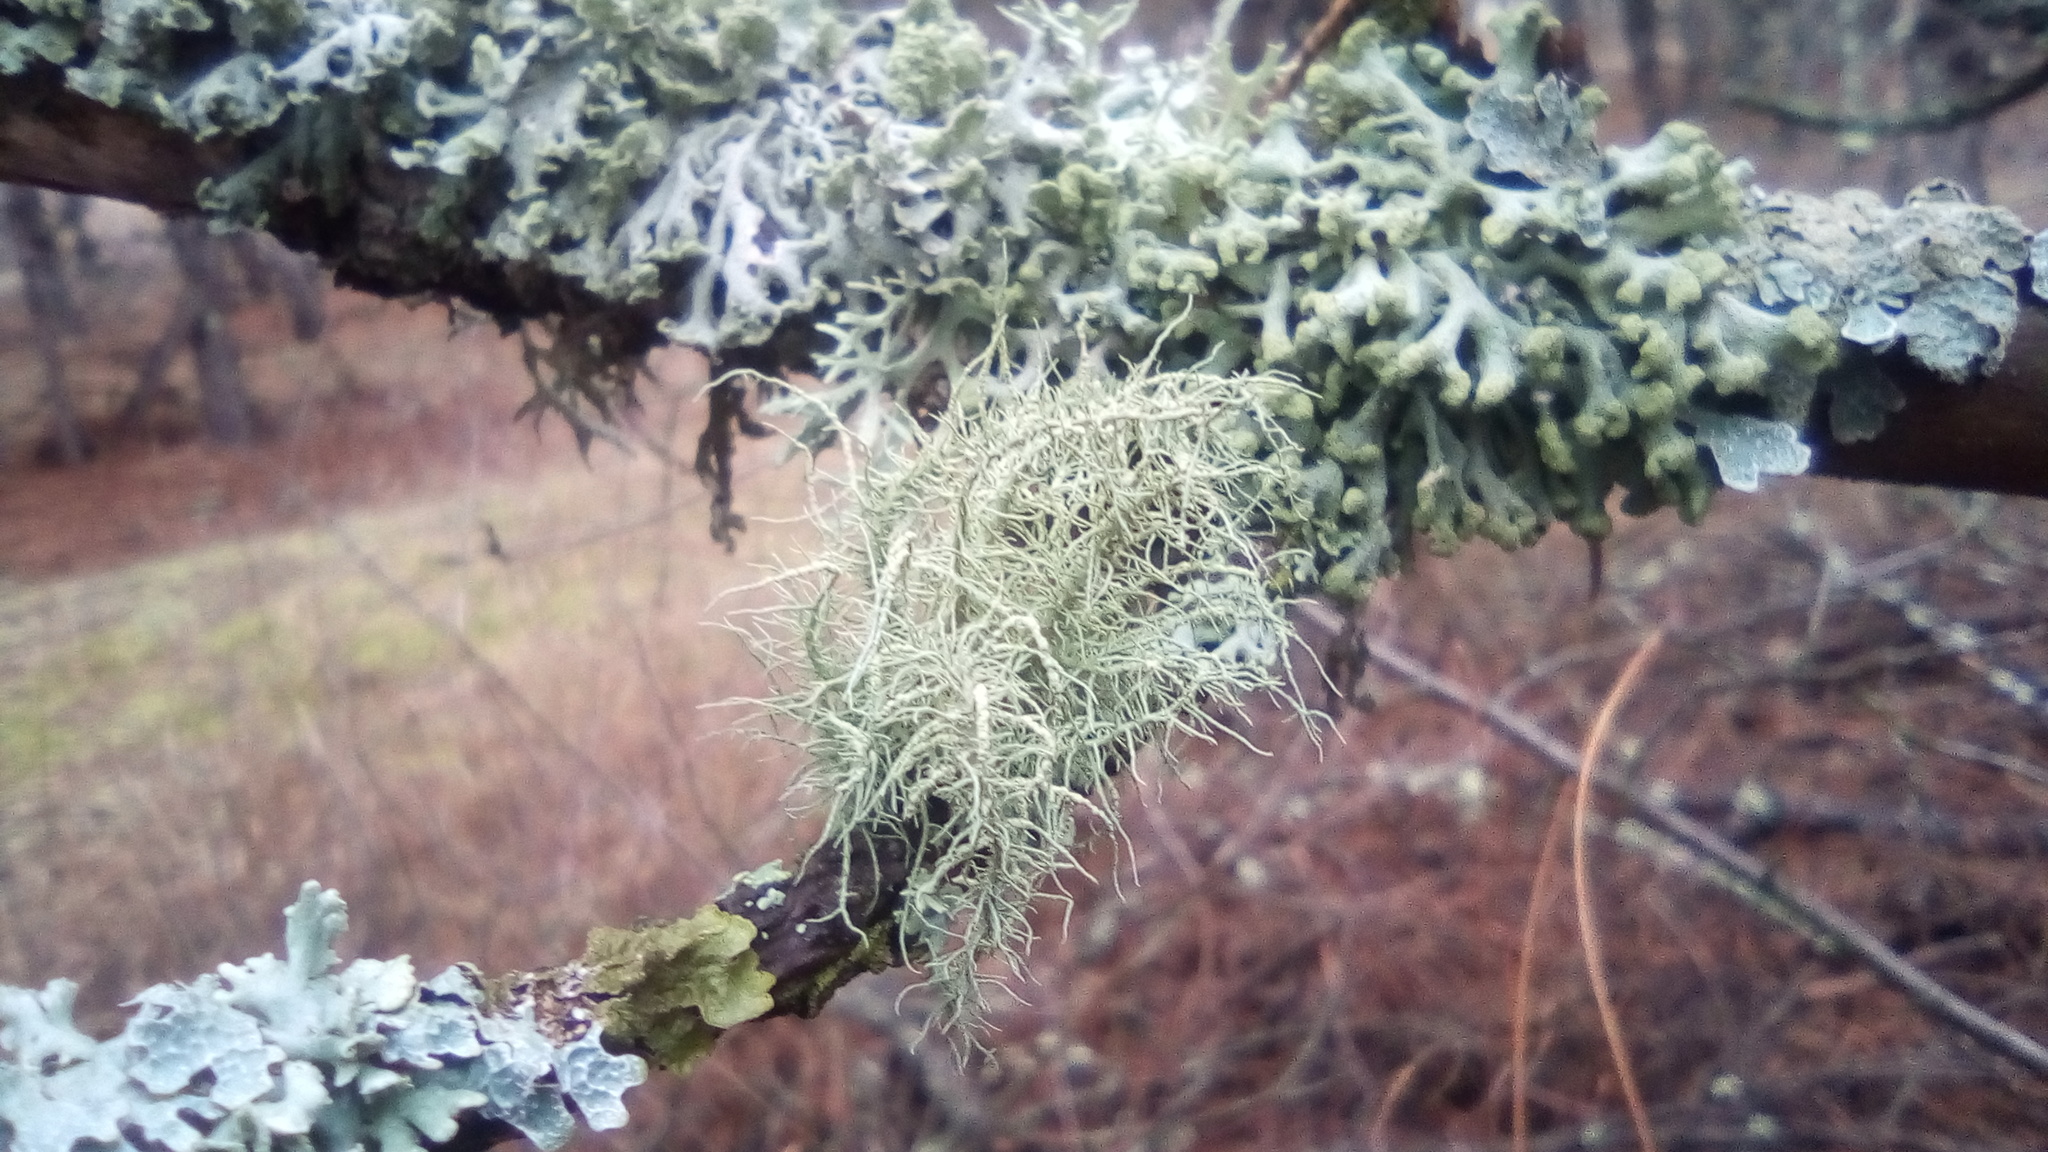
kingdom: Fungi
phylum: Ascomycota
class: Lecanoromycetes
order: Lecanorales
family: Parmeliaceae
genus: Usnea
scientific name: Usnea hirta
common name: Bristly beard lichen
